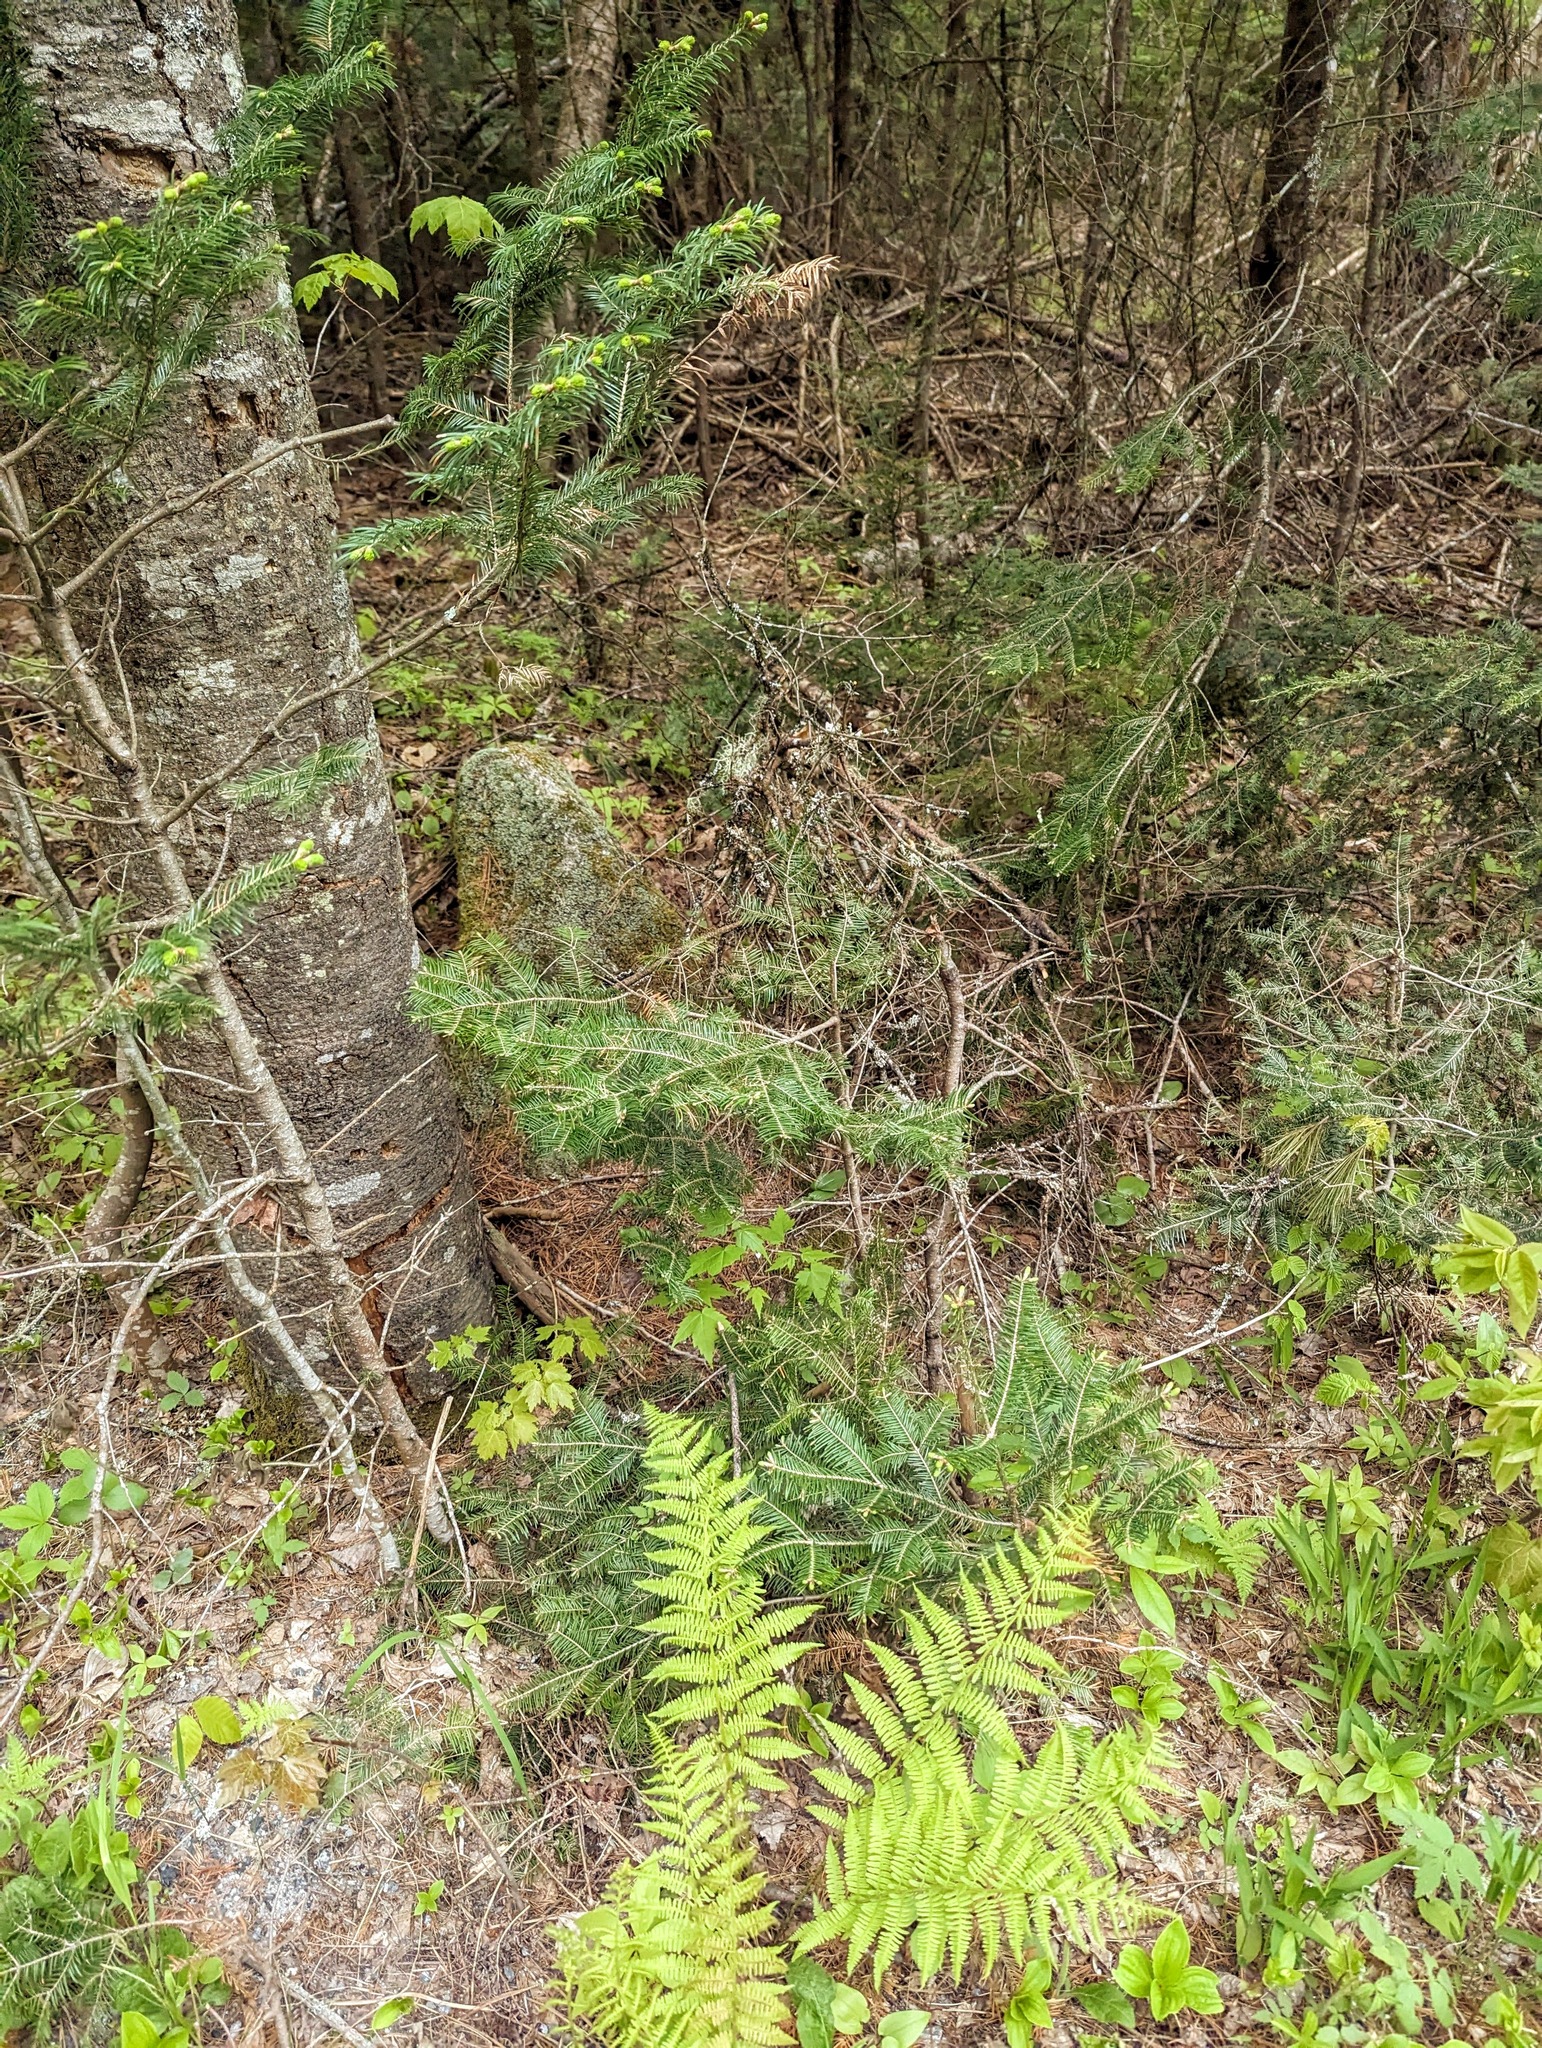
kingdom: Plantae
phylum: Tracheophyta
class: Pinopsida
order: Pinales
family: Pinaceae
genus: Abies
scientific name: Abies balsamea
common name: Balsam fir
